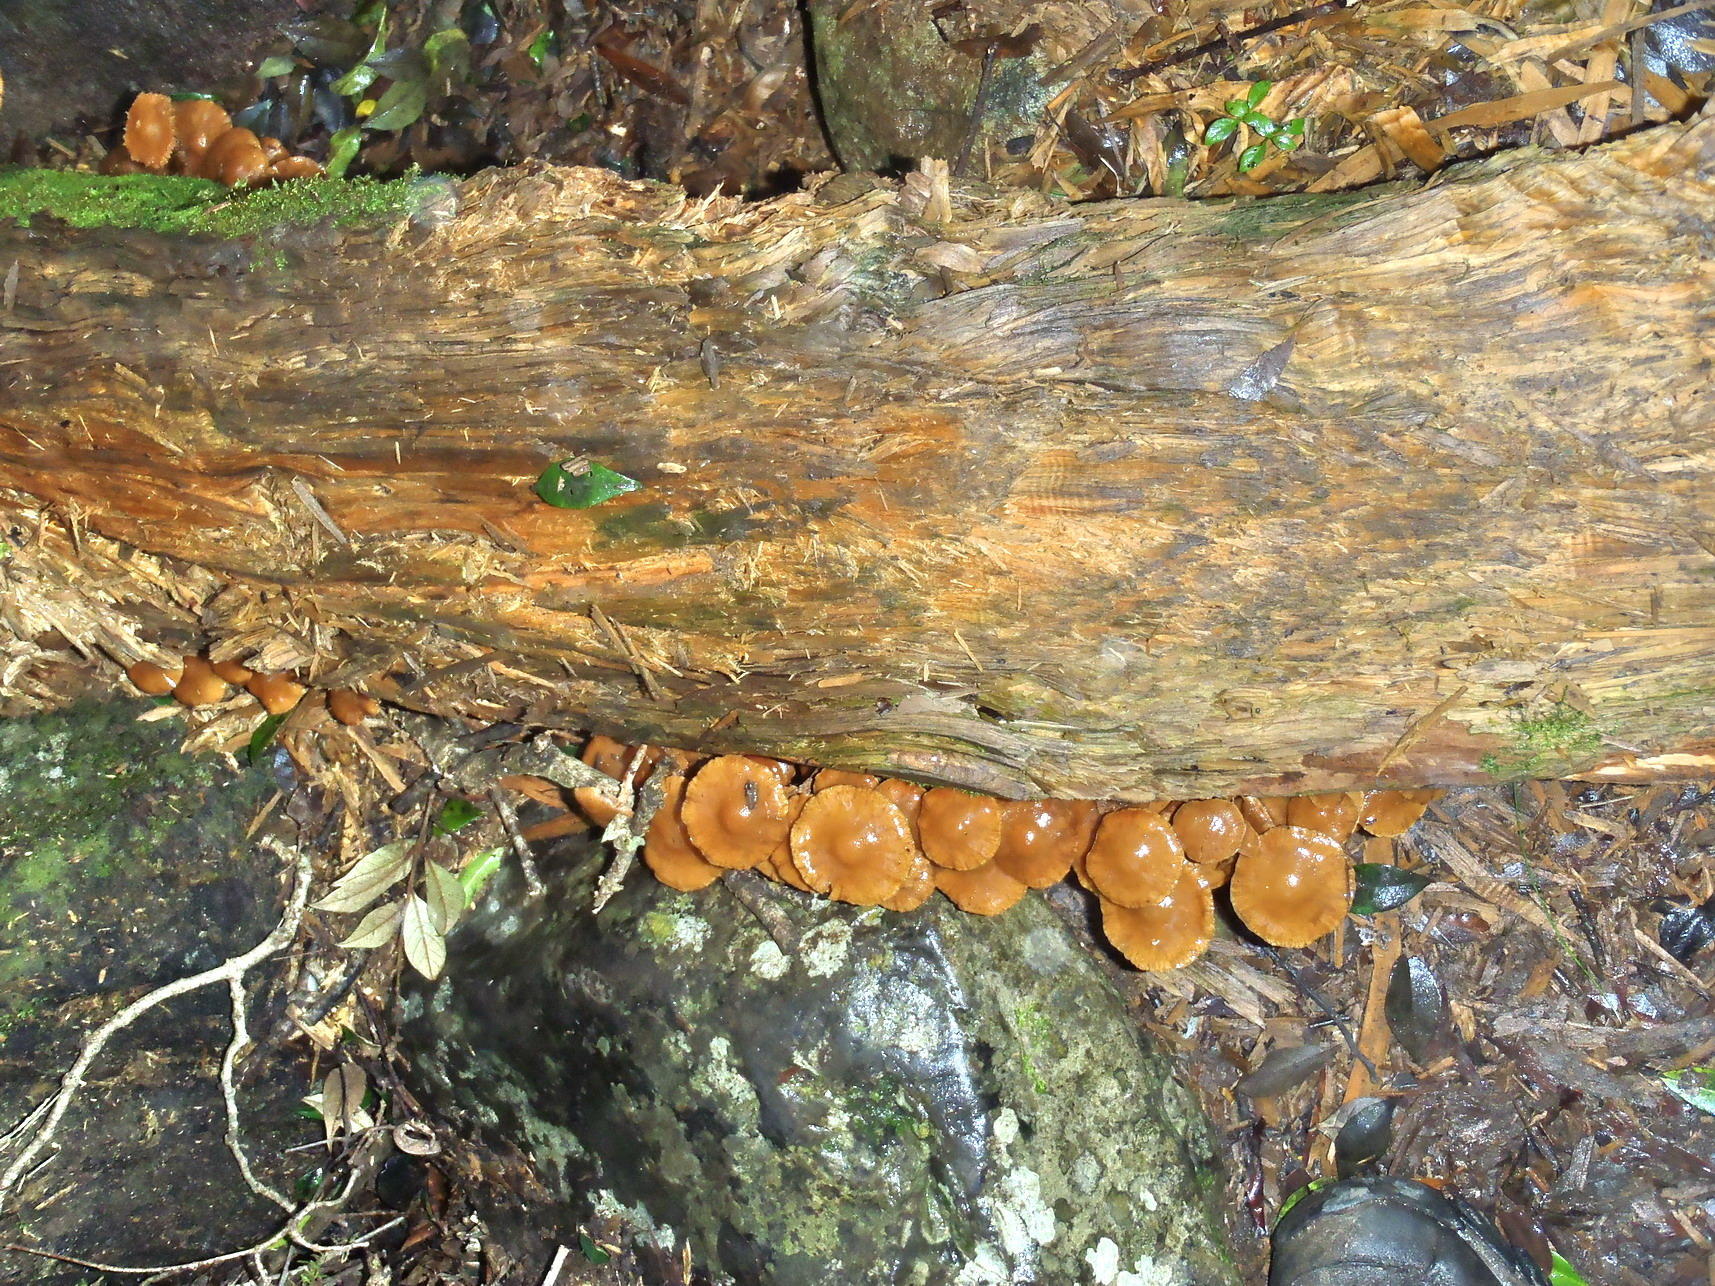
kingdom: Fungi
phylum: Basidiomycota
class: Agaricomycetes
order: Agaricales
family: Hymenogastraceae
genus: Gymnopilus
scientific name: Gymnopilus junonius
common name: Spectacular rustgill
